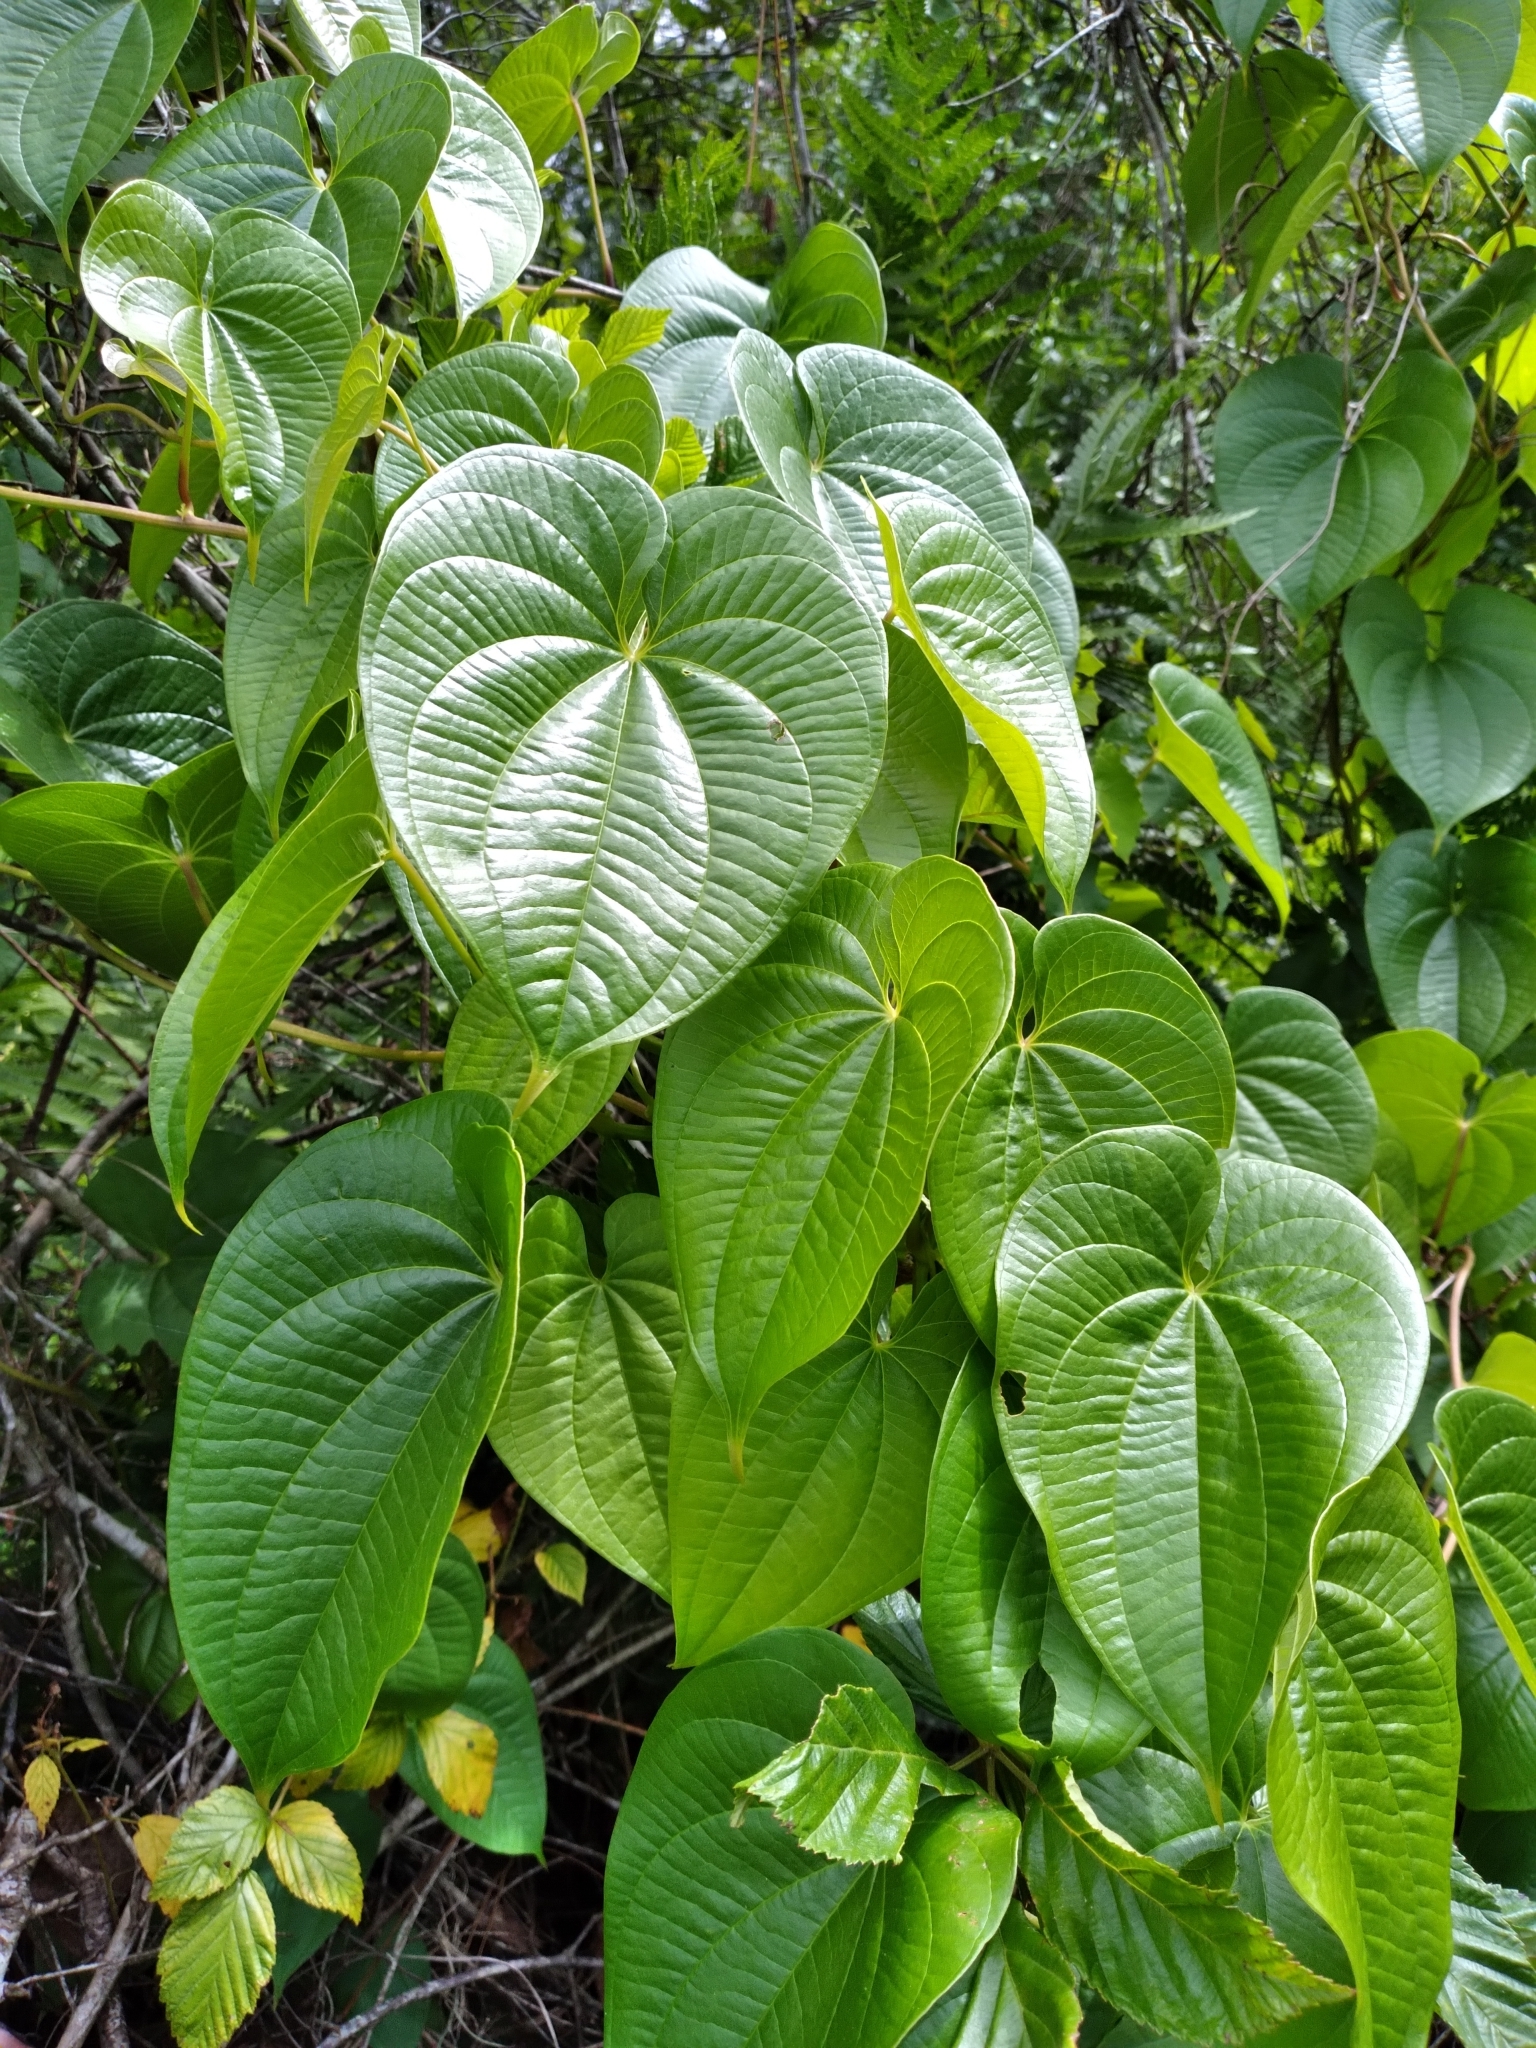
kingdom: Plantae
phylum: Tracheophyta
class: Liliopsida
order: Dioscoreales
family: Dioscoreaceae
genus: Dioscorea
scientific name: Dioscorea bulbifera
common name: Air yam
